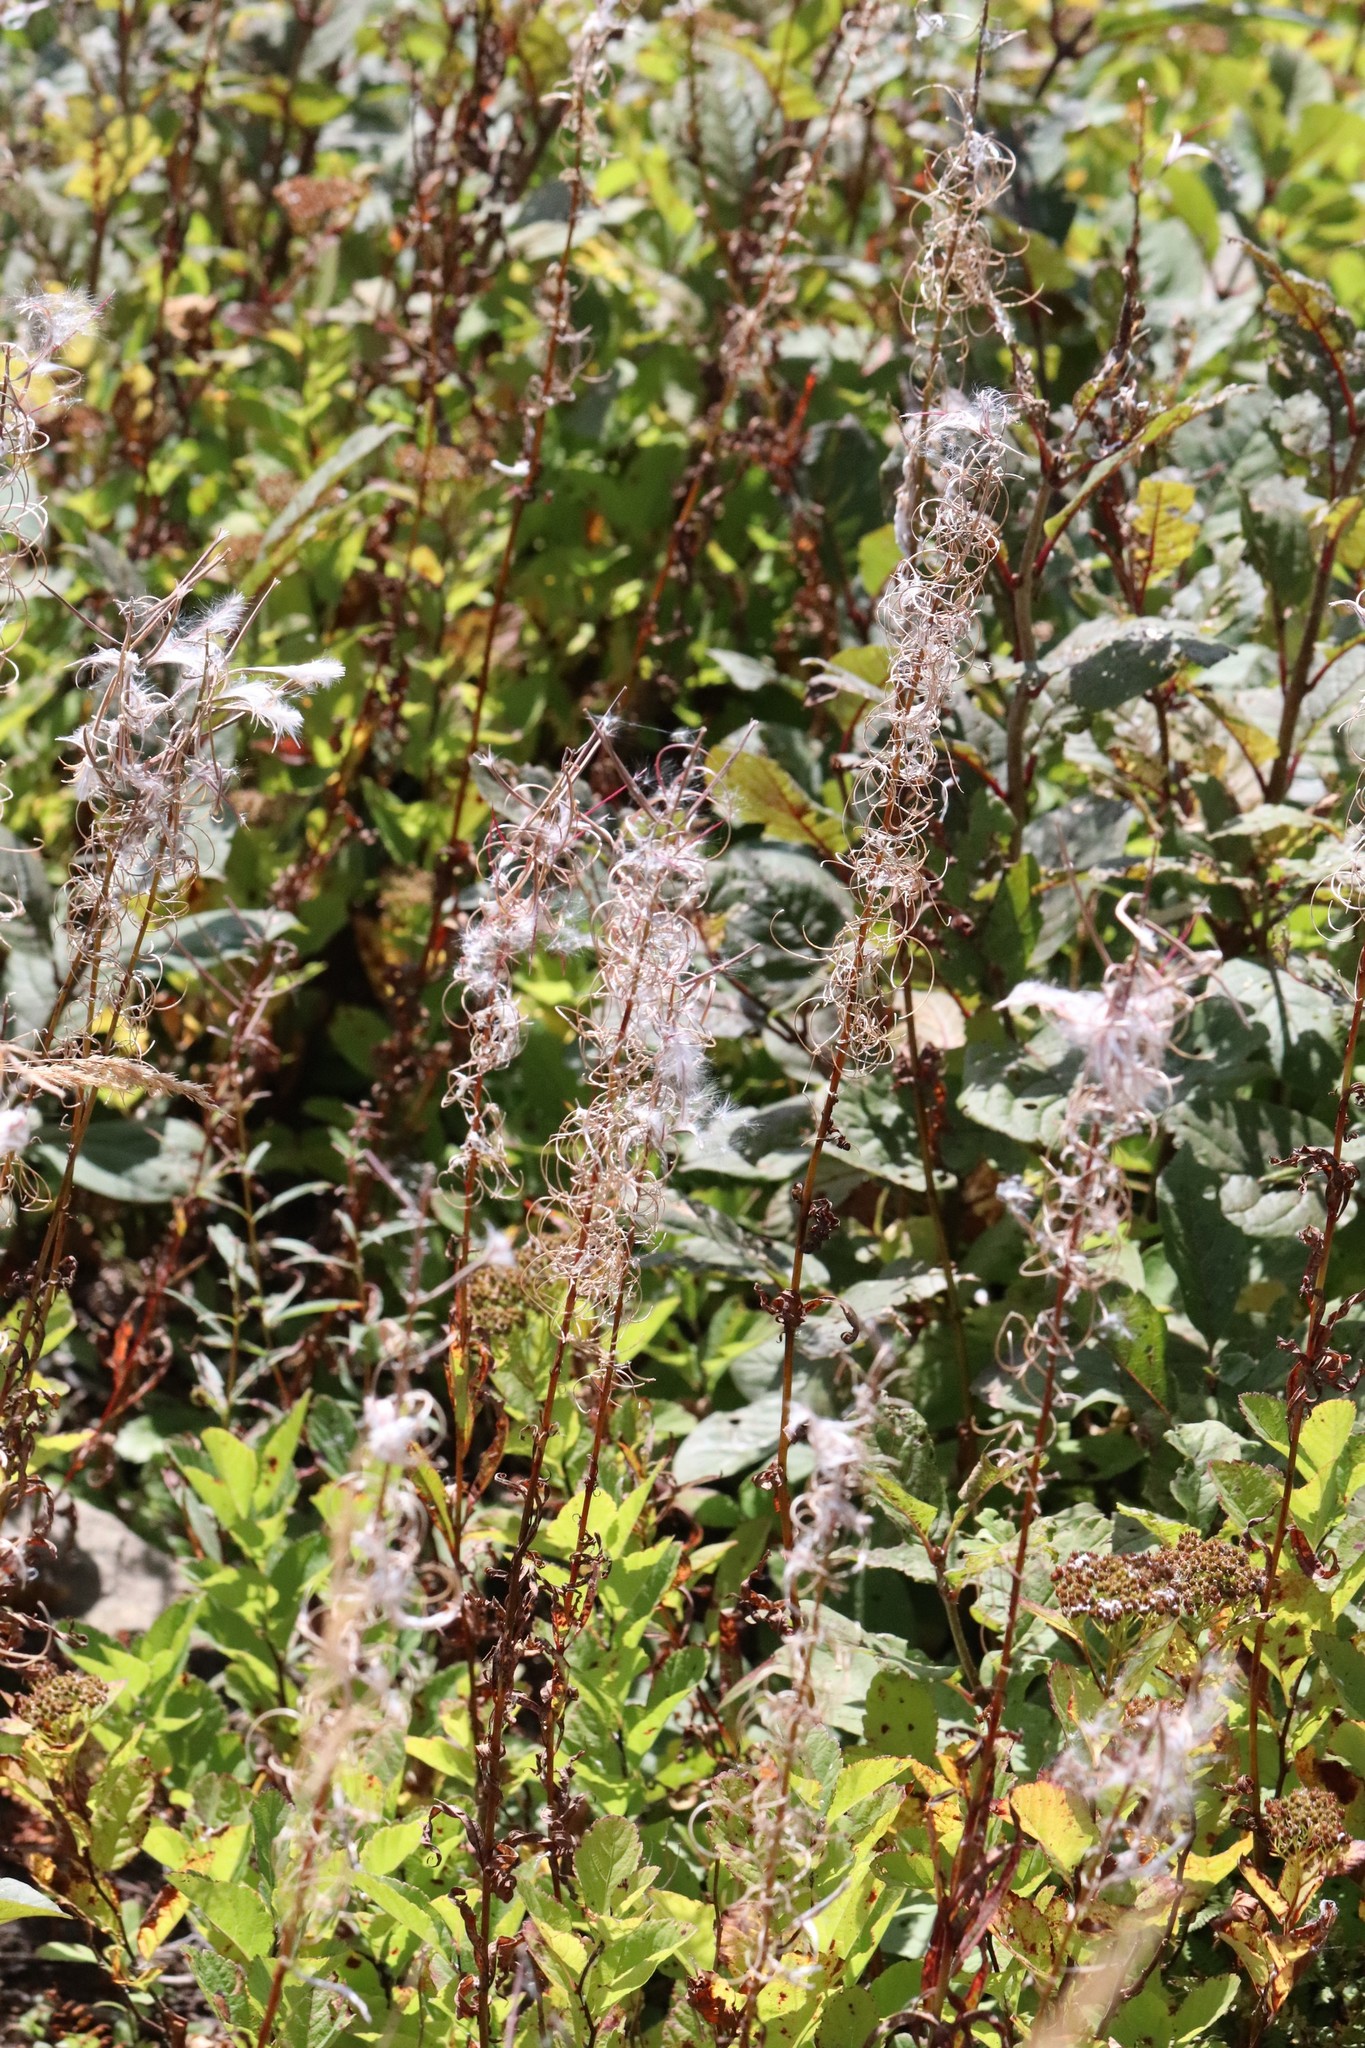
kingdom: Plantae
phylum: Tracheophyta
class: Magnoliopsida
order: Myrtales
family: Onagraceae
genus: Chamaenerion
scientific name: Chamaenerion angustifolium
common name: Fireweed
